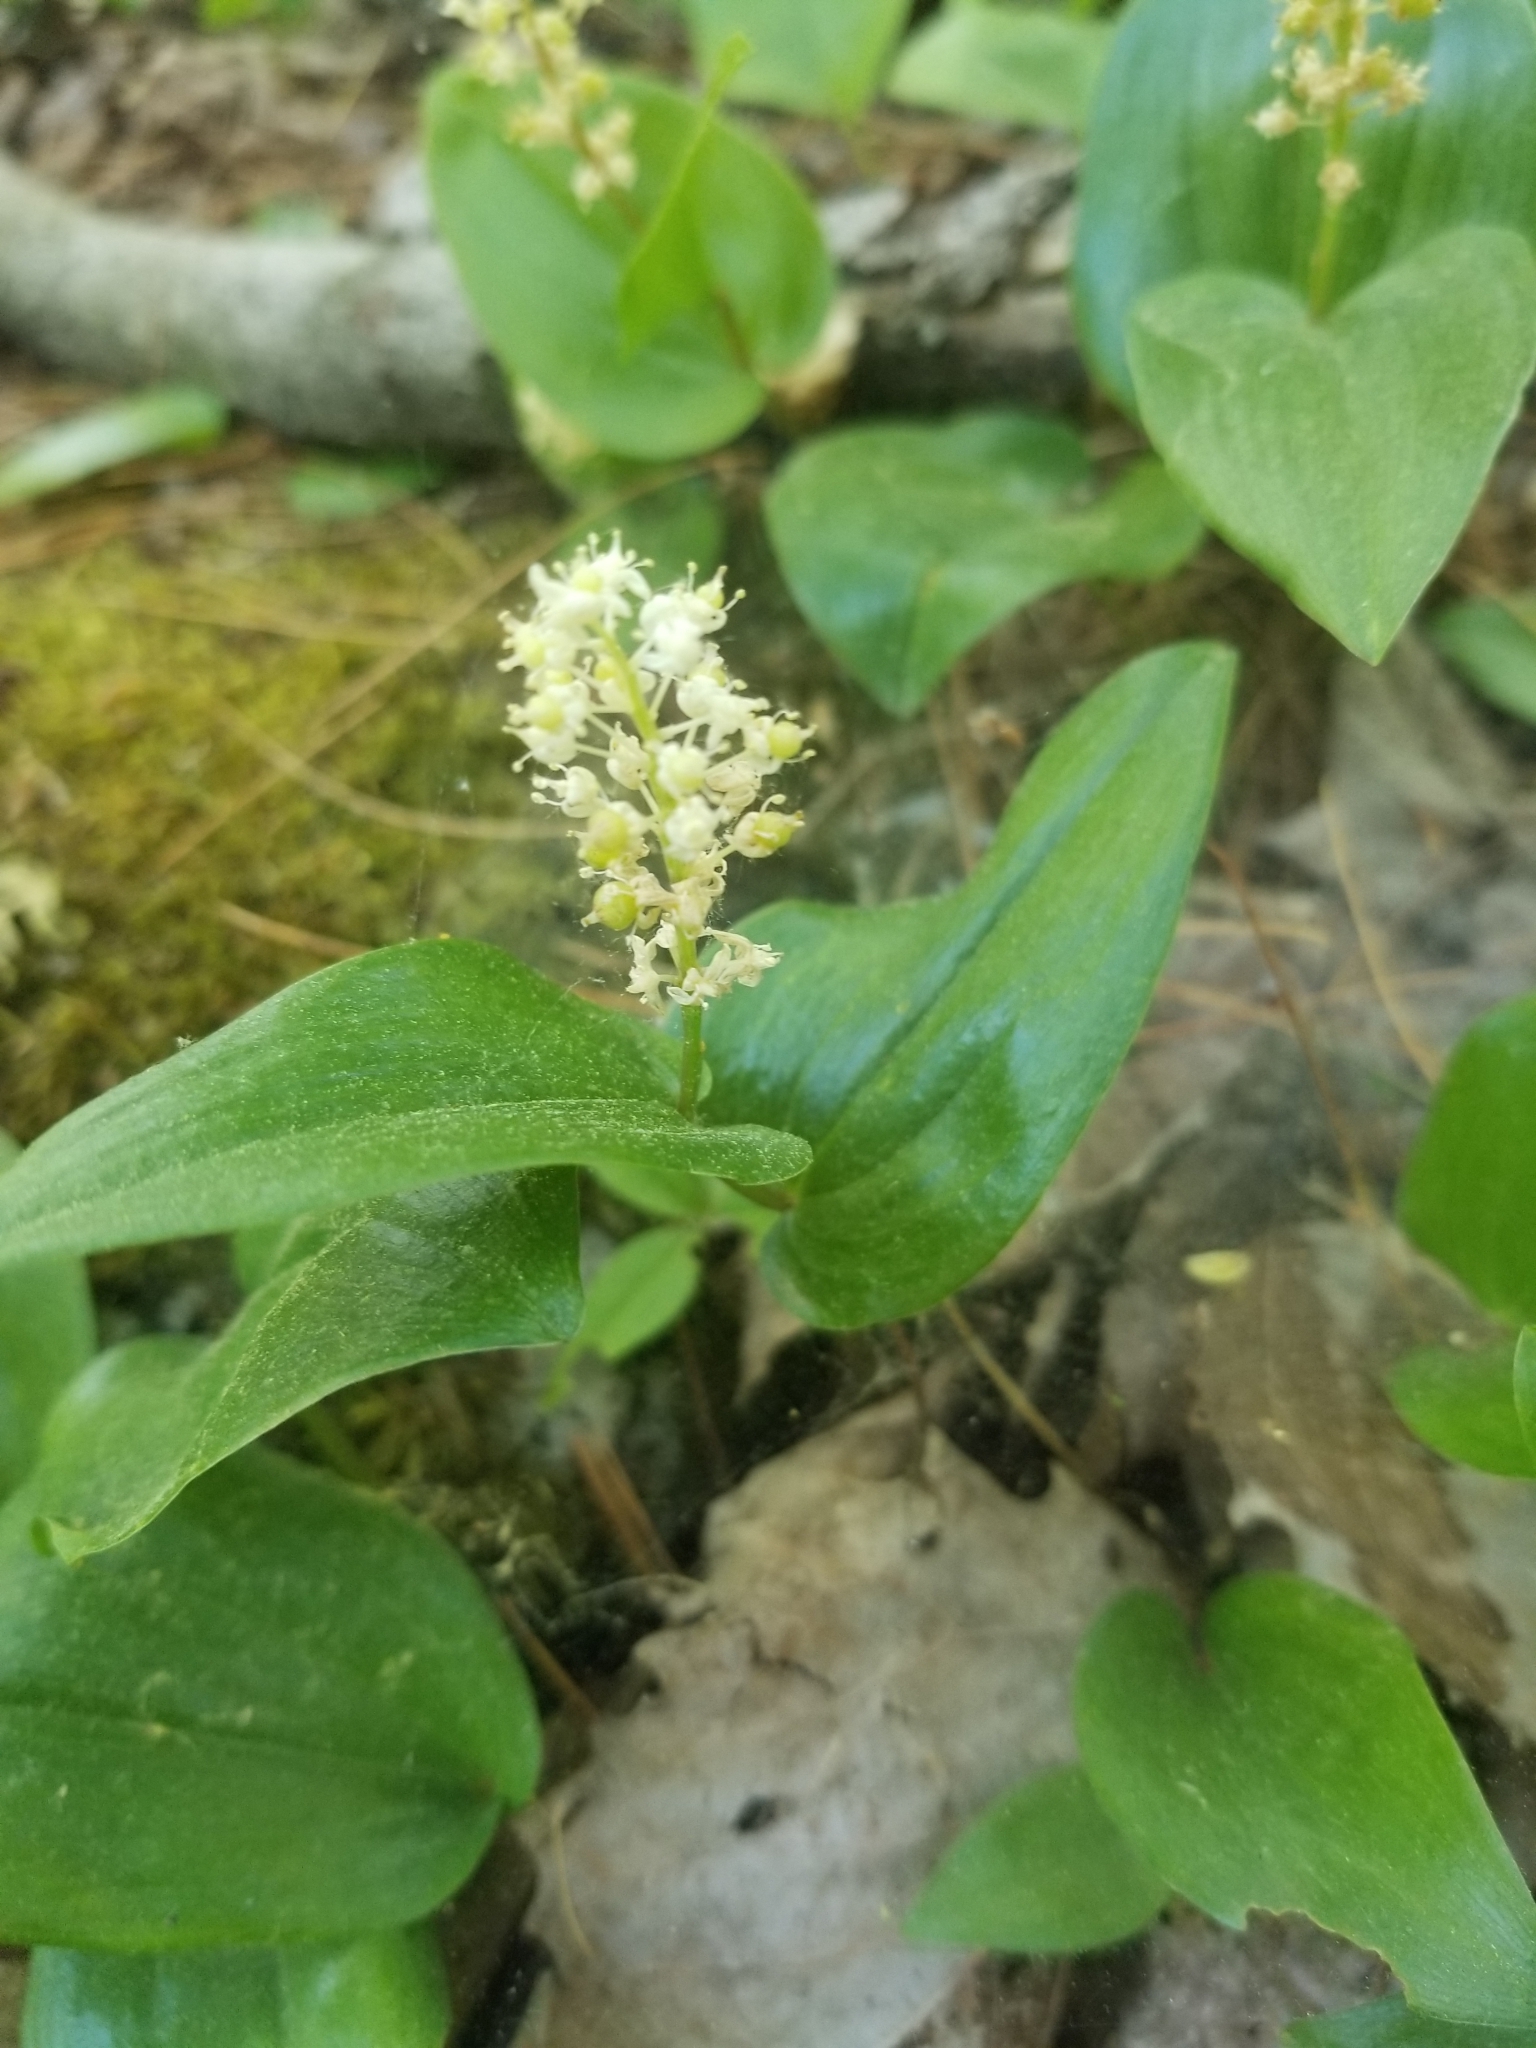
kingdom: Plantae
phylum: Tracheophyta
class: Liliopsida
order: Asparagales
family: Asparagaceae
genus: Maianthemum
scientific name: Maianthemum canadense
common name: False lily-of-the-valley
